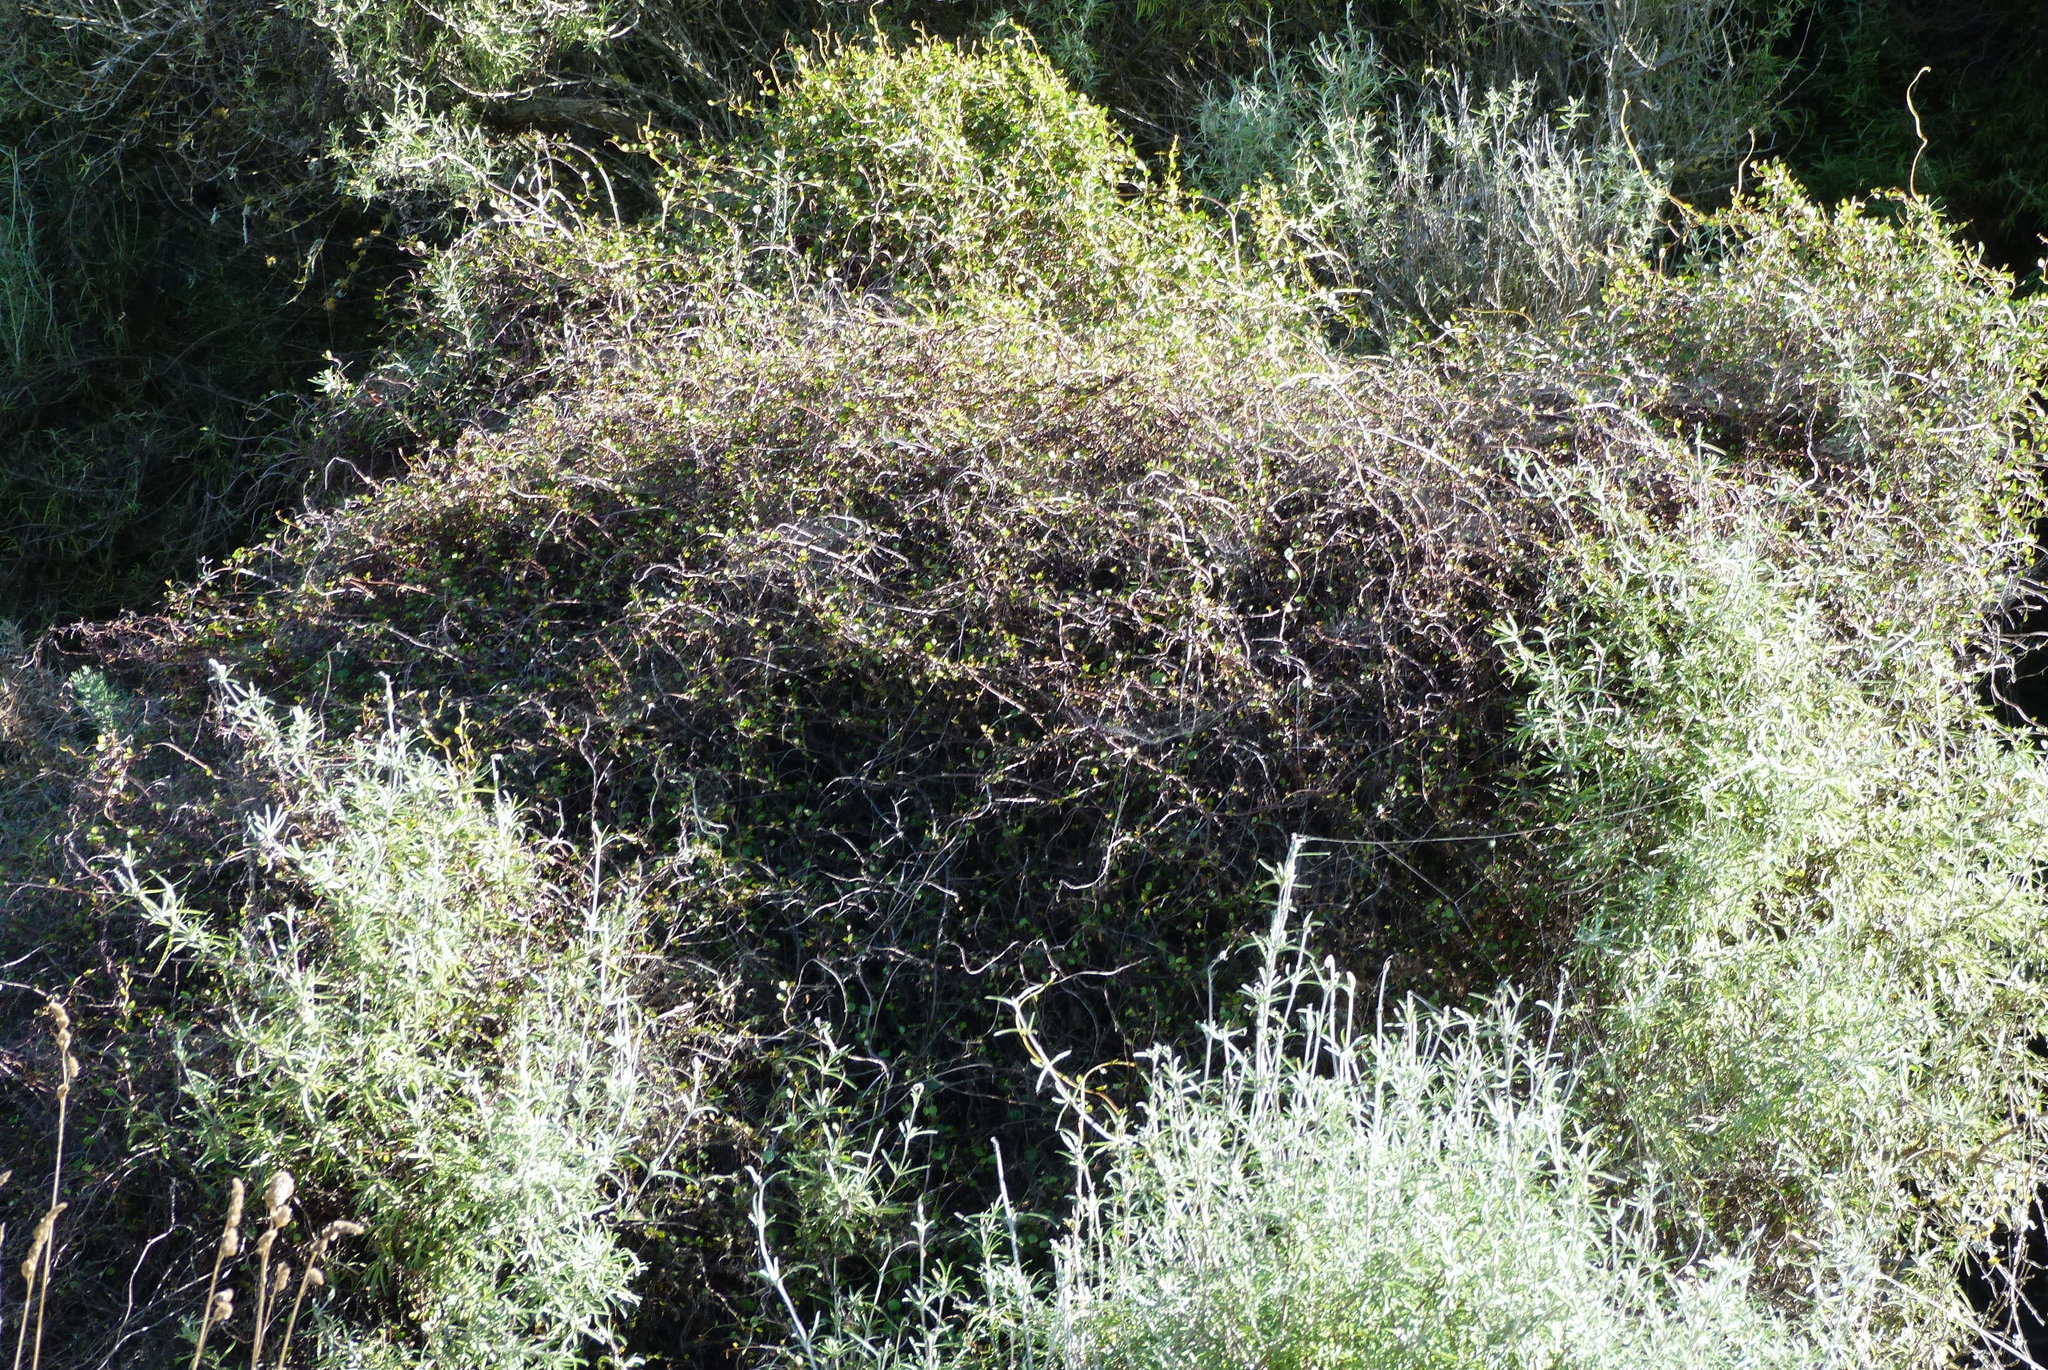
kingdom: Plantae
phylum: Tracheophyta
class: Magnoliopsida
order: Caryophyllales
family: Polygonaceae
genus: Muehlenbeckia
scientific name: Muehlenbeckia complexa
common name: Wireplant
